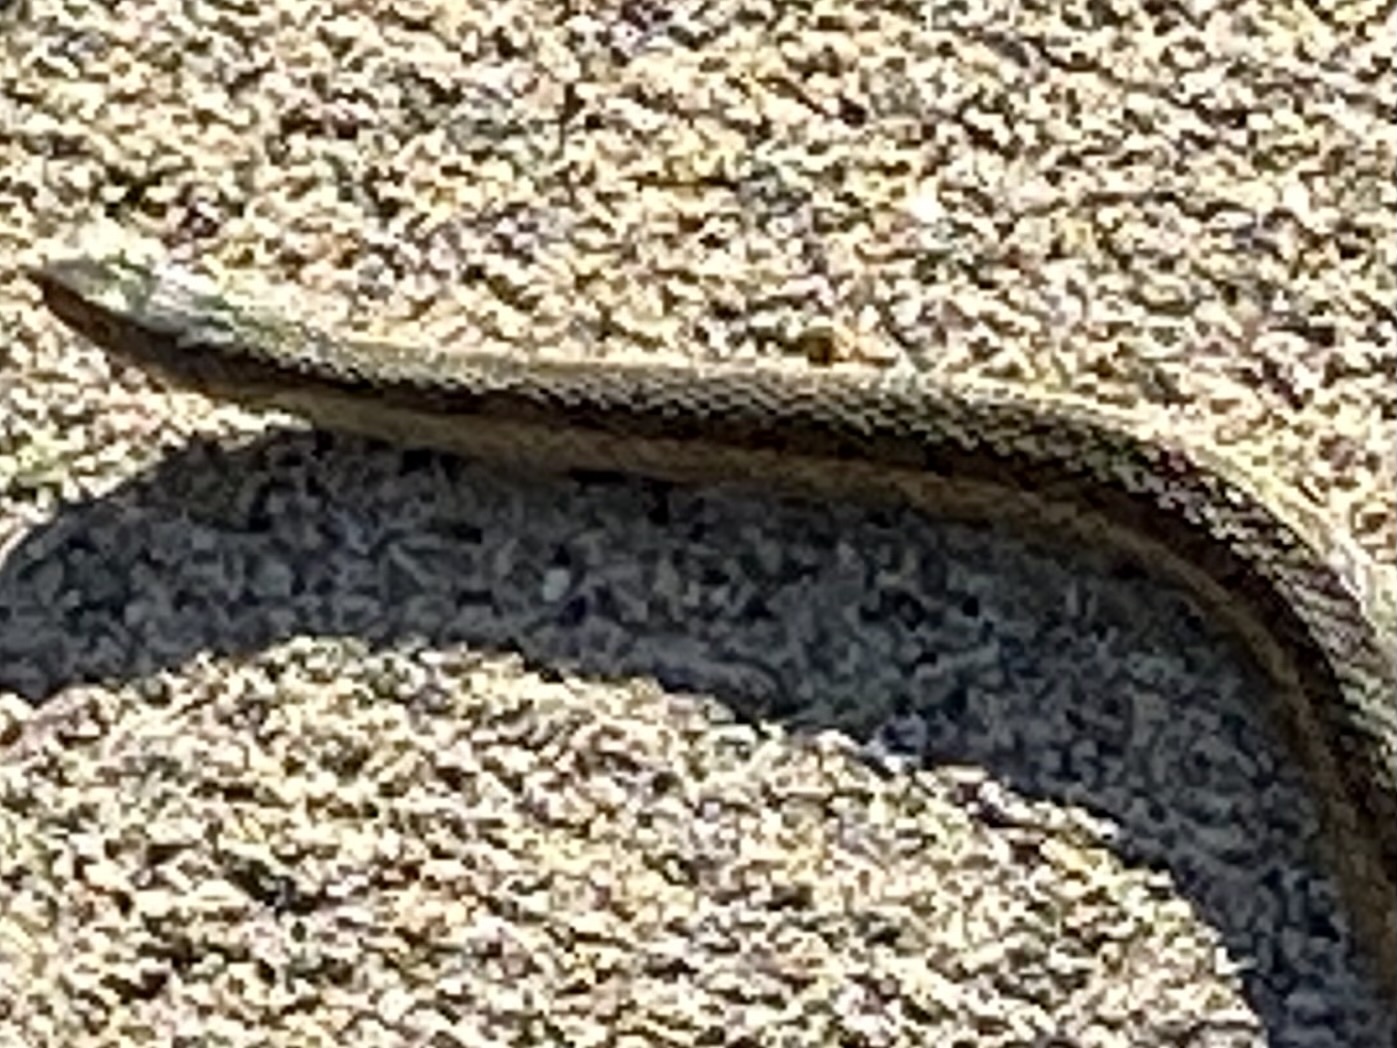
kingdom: Animalia
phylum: Chordata
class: Squamata
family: Colubridae
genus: Thamnophis
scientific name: Thamnophis sirtalis
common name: Common garter snake
